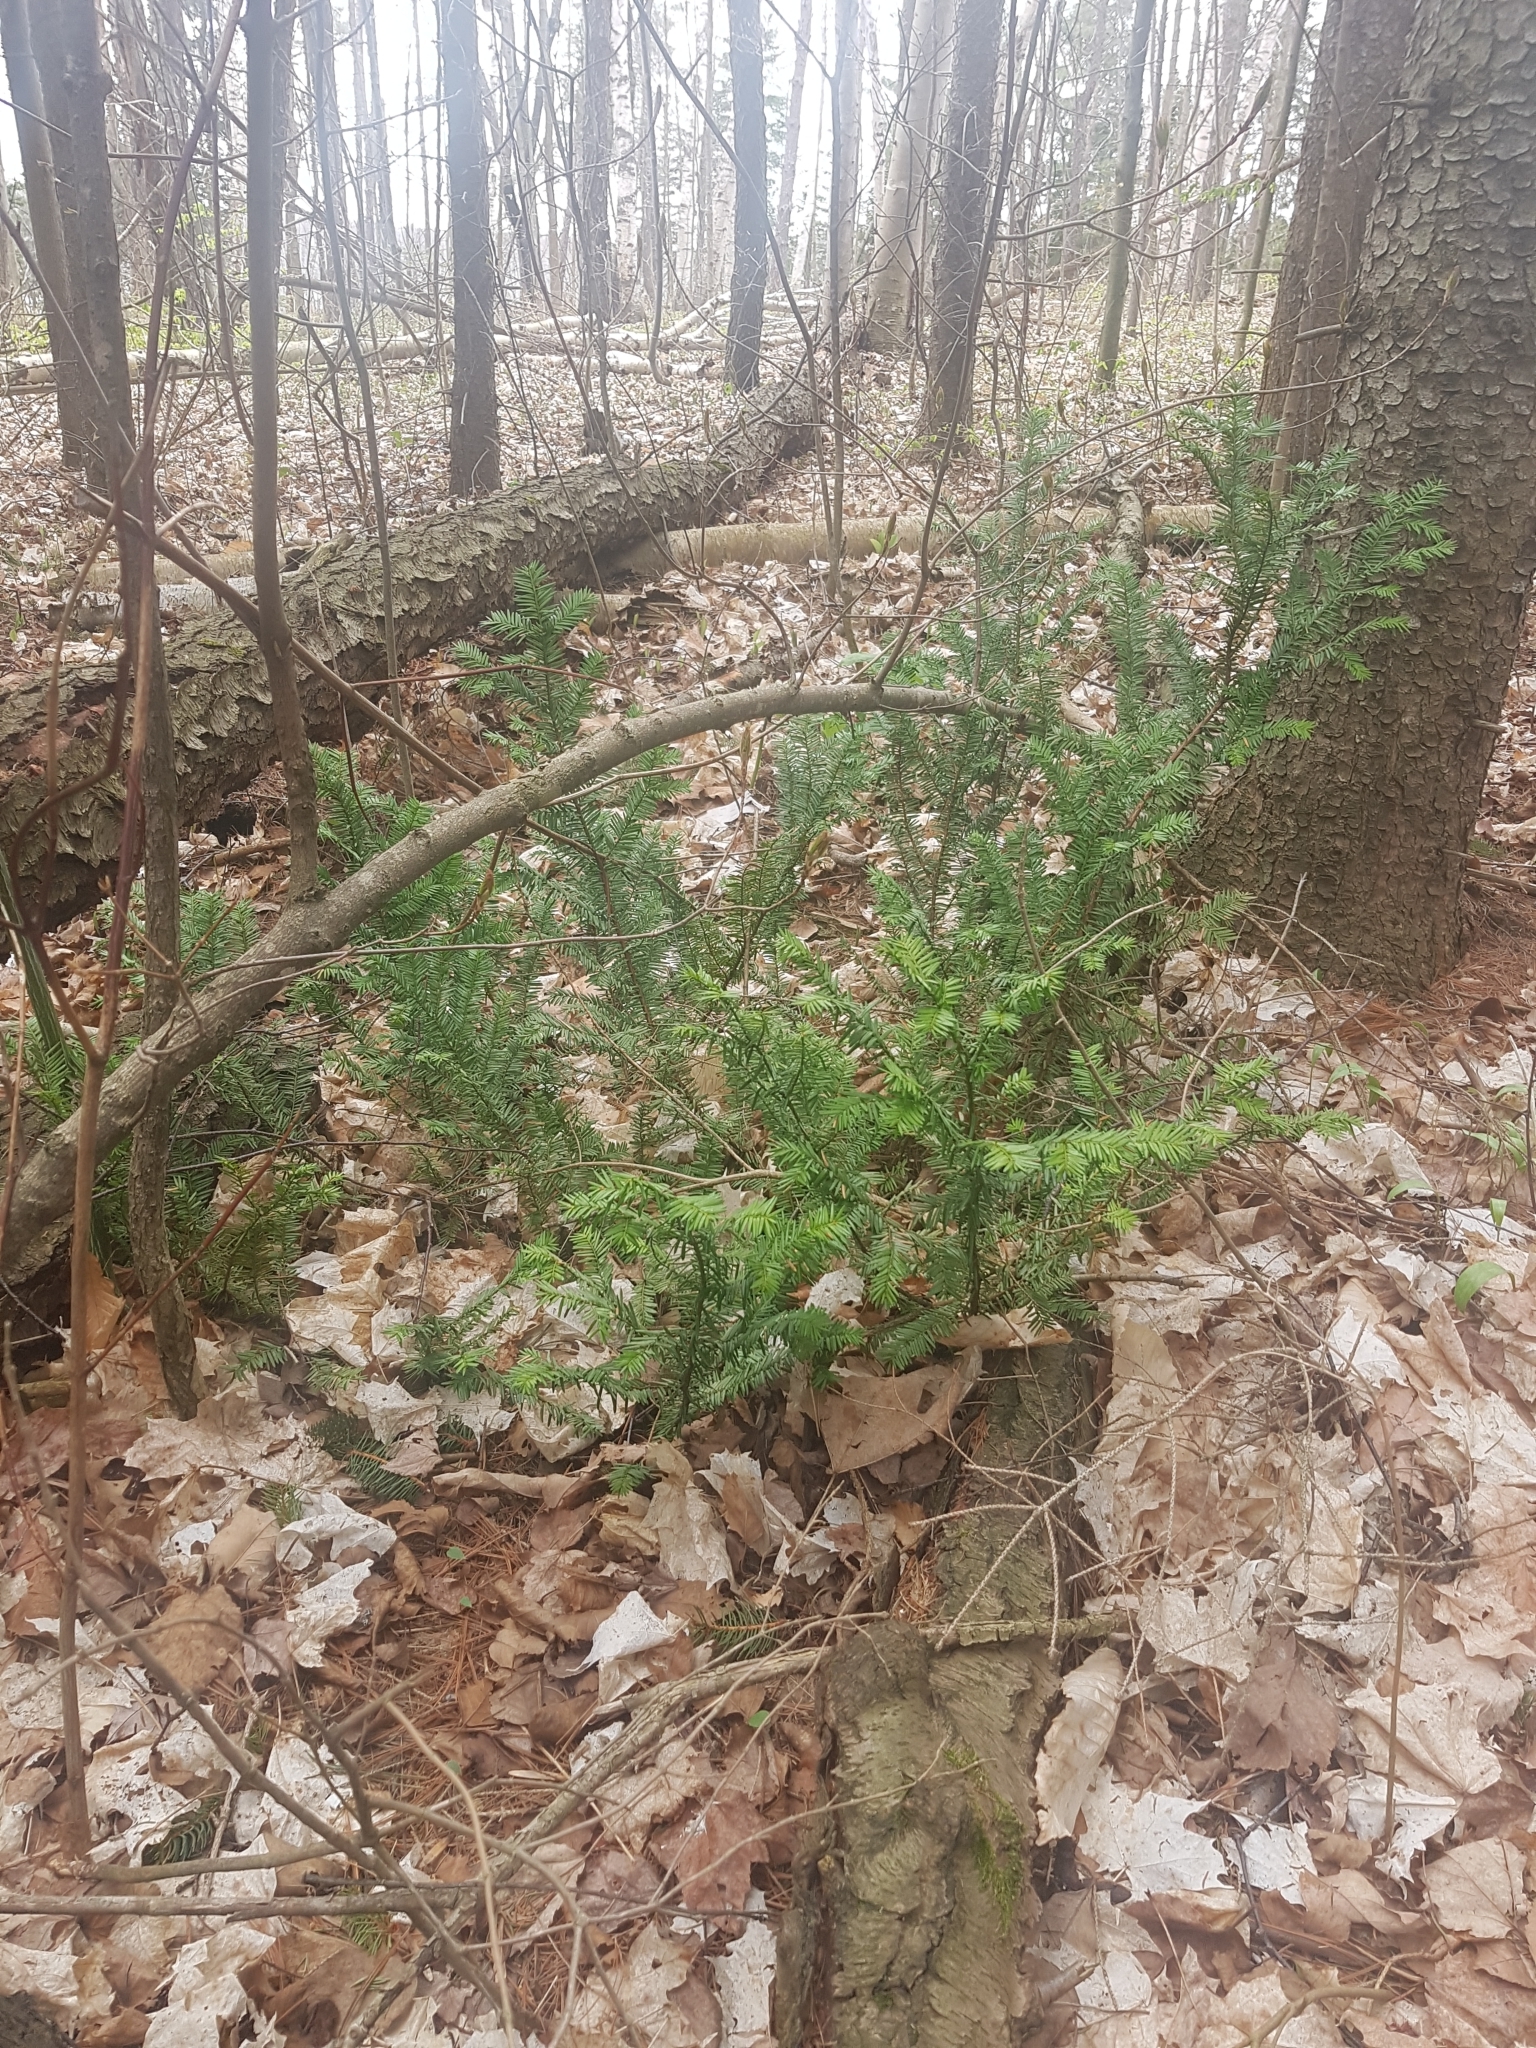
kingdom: Plantae
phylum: Tracheophyta
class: Pinopsida
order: Pinales
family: Taxaceae
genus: Taxus
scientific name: Taxus canadensis
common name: American yew
